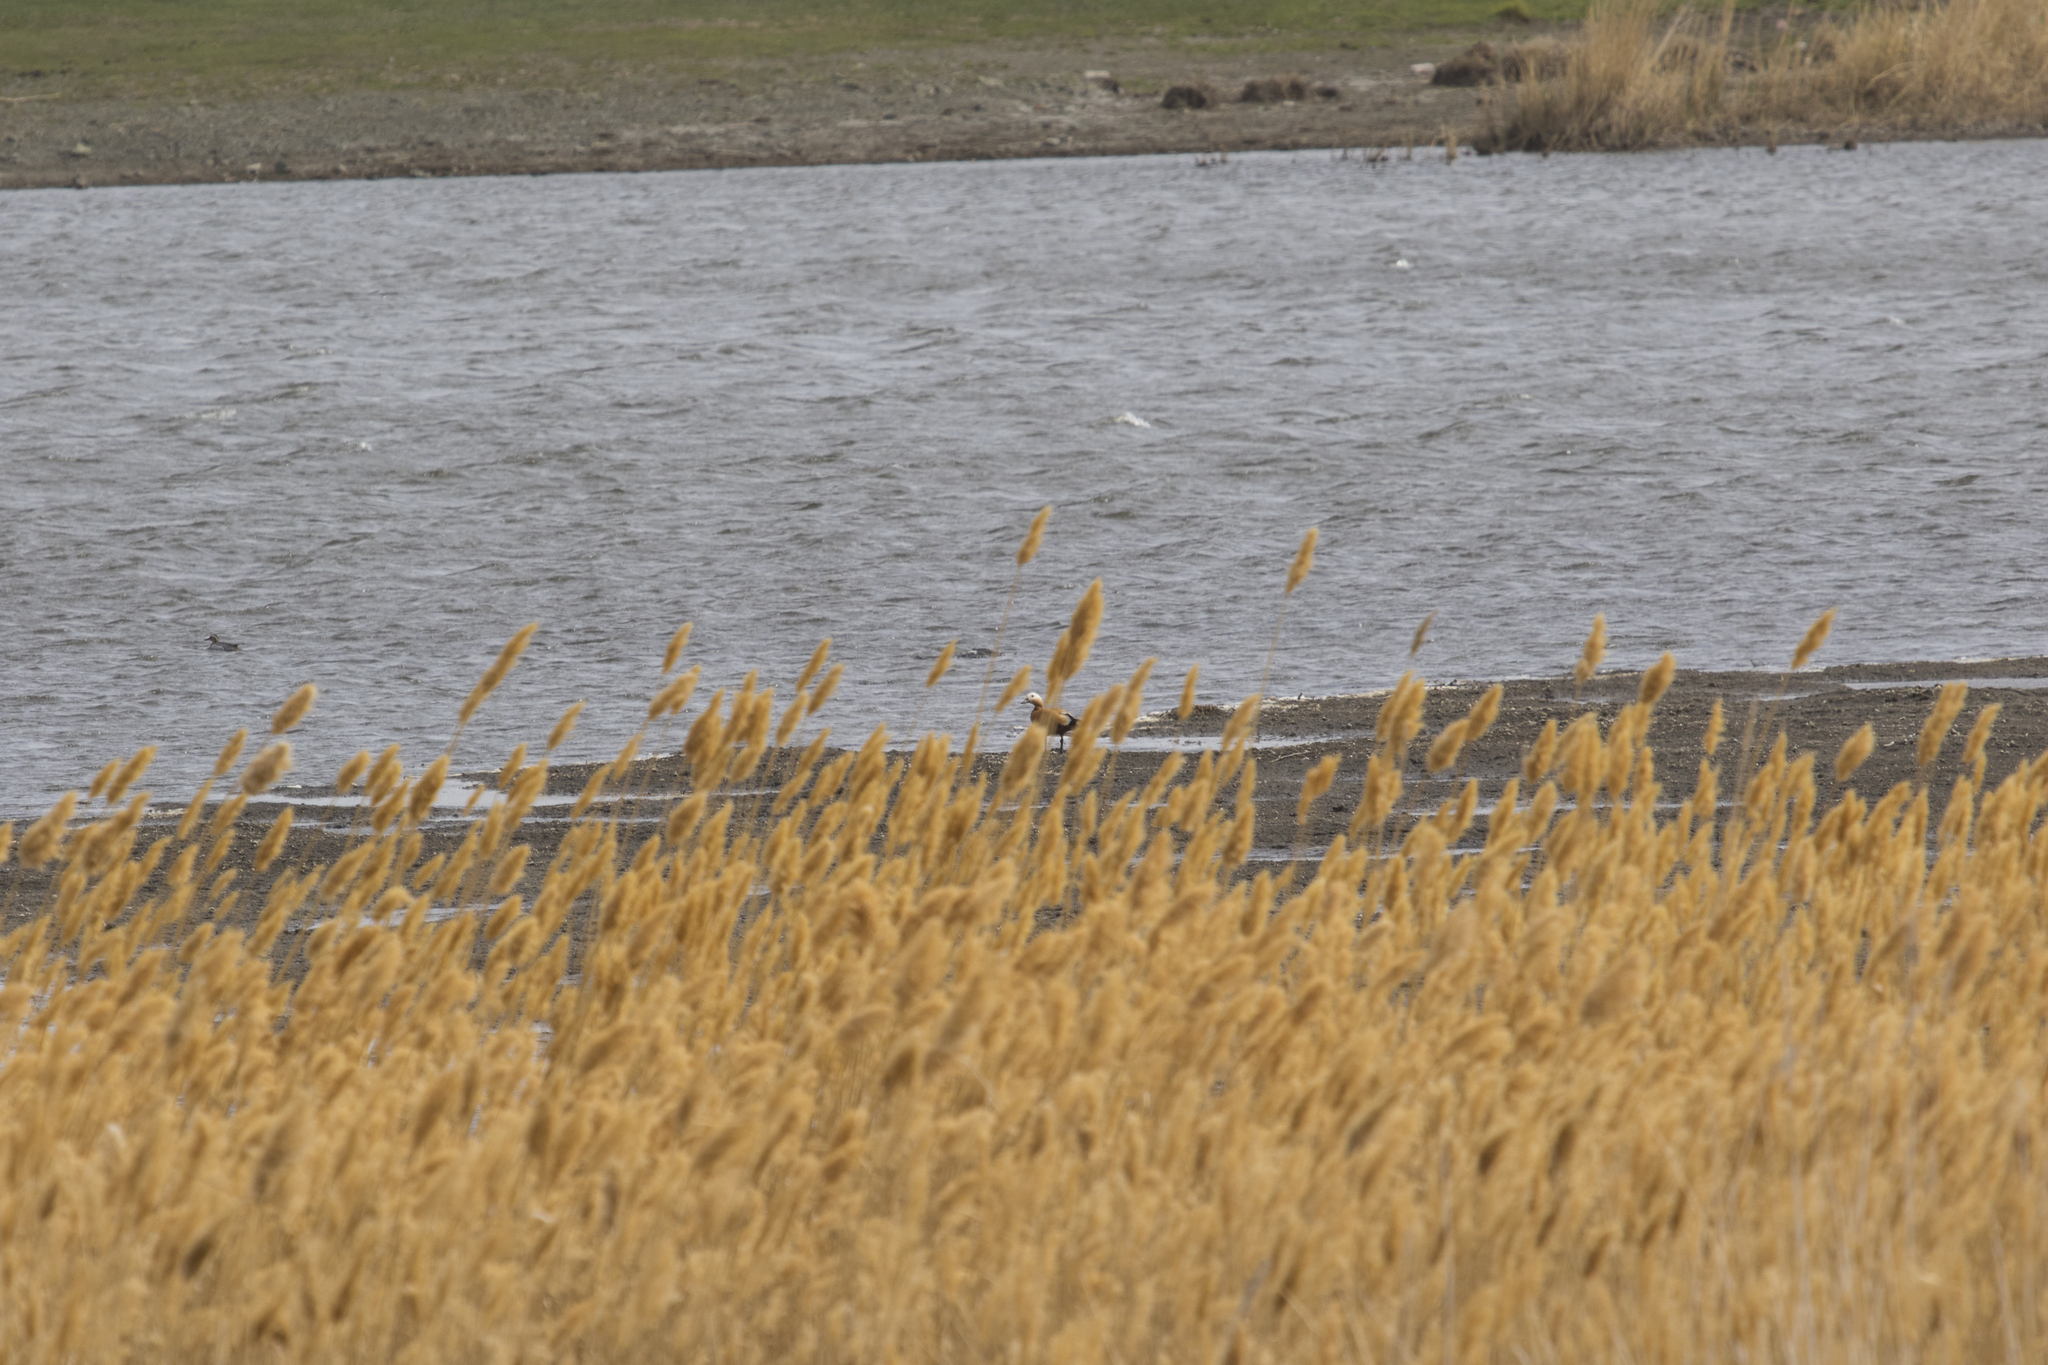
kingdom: Animalia
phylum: Chordata
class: Aves
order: Anseriformes
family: Anatidae
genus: Tadorna
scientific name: Tadorna ferruginea
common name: Ruddy shelduck
